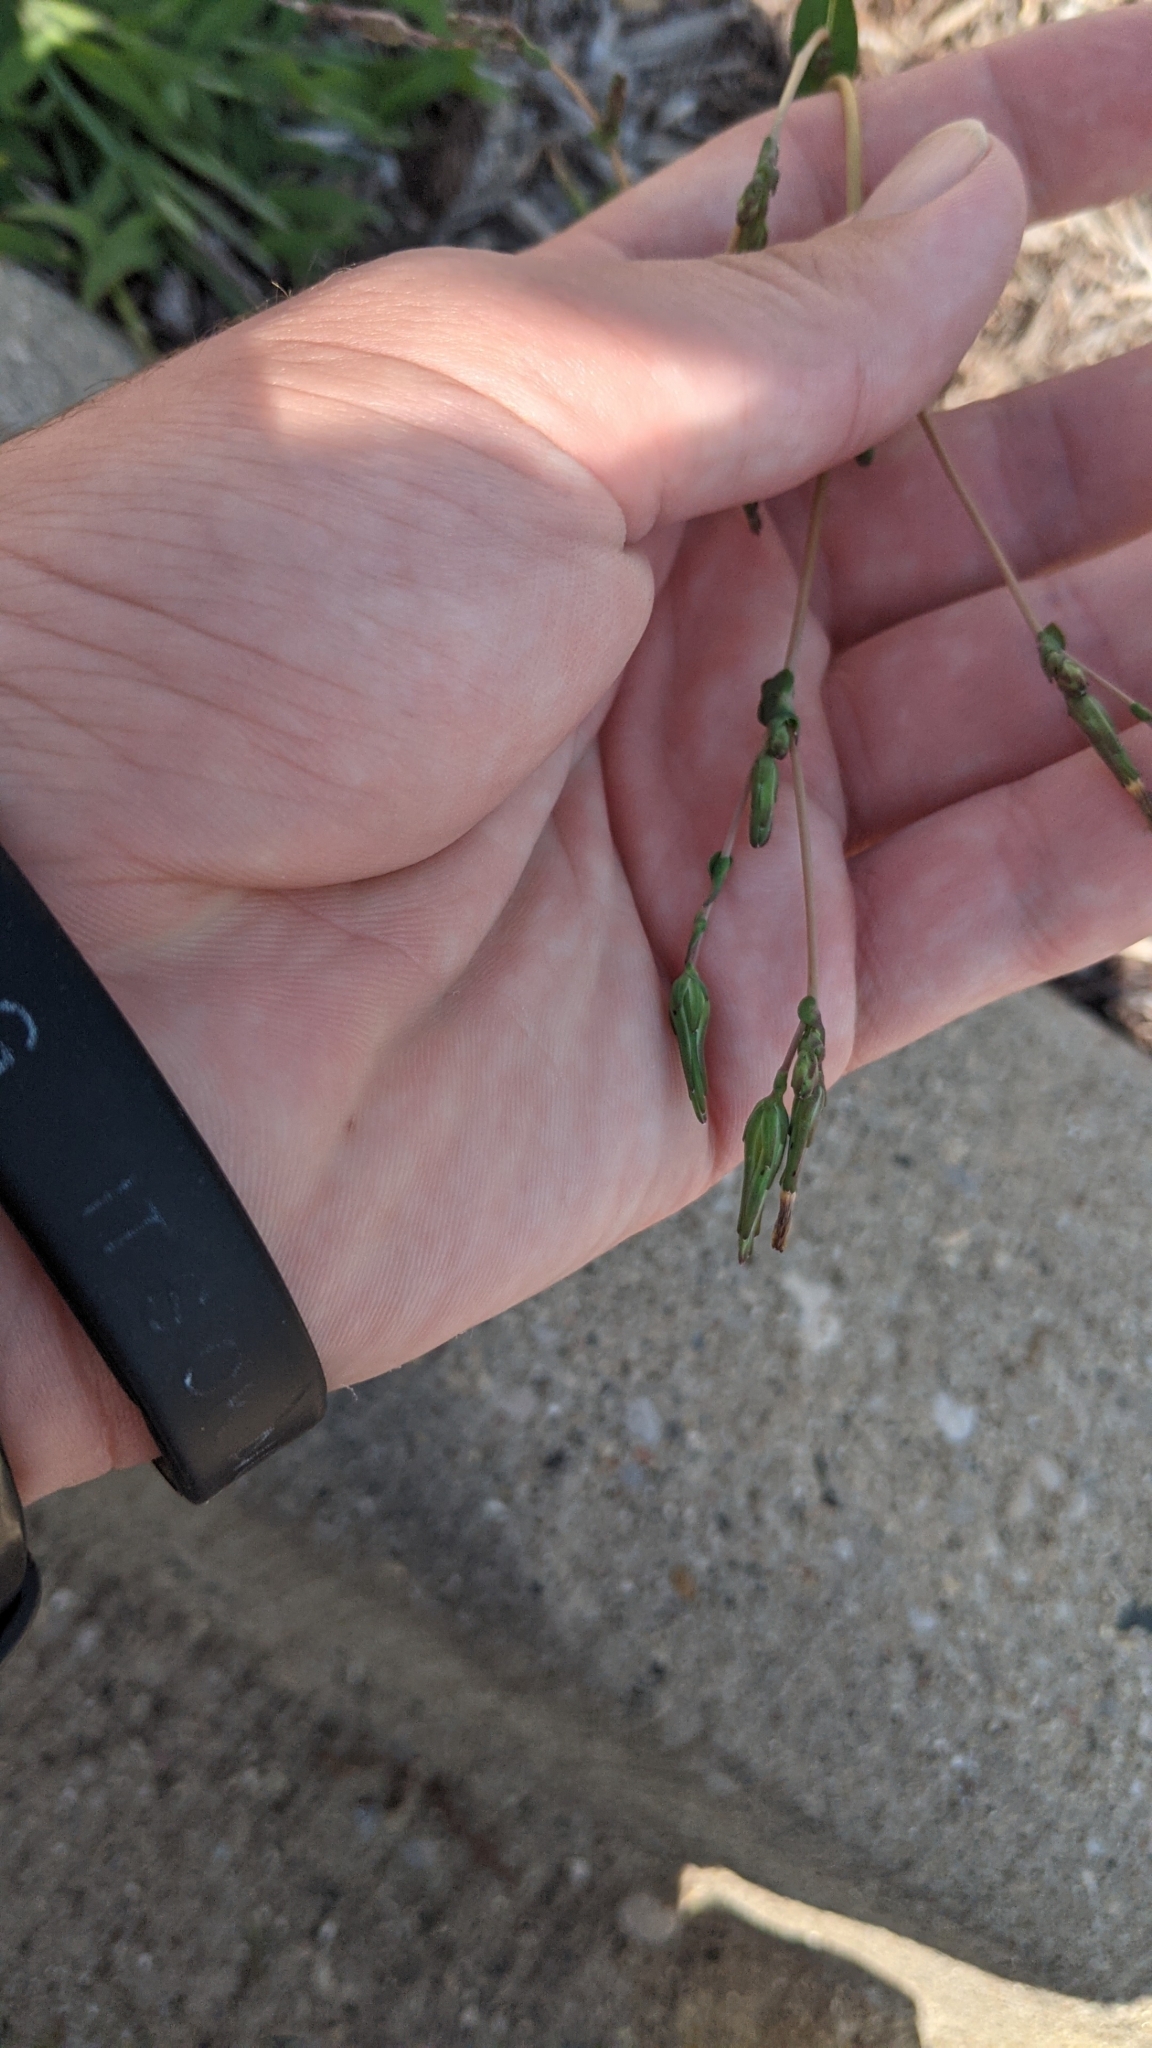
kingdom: Plantae
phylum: Tracheophyta
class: Magnoliopsida
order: Asterales
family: Asteraceae
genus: Lactuca
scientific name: Lactuca serriola
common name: Prickly lettuce
